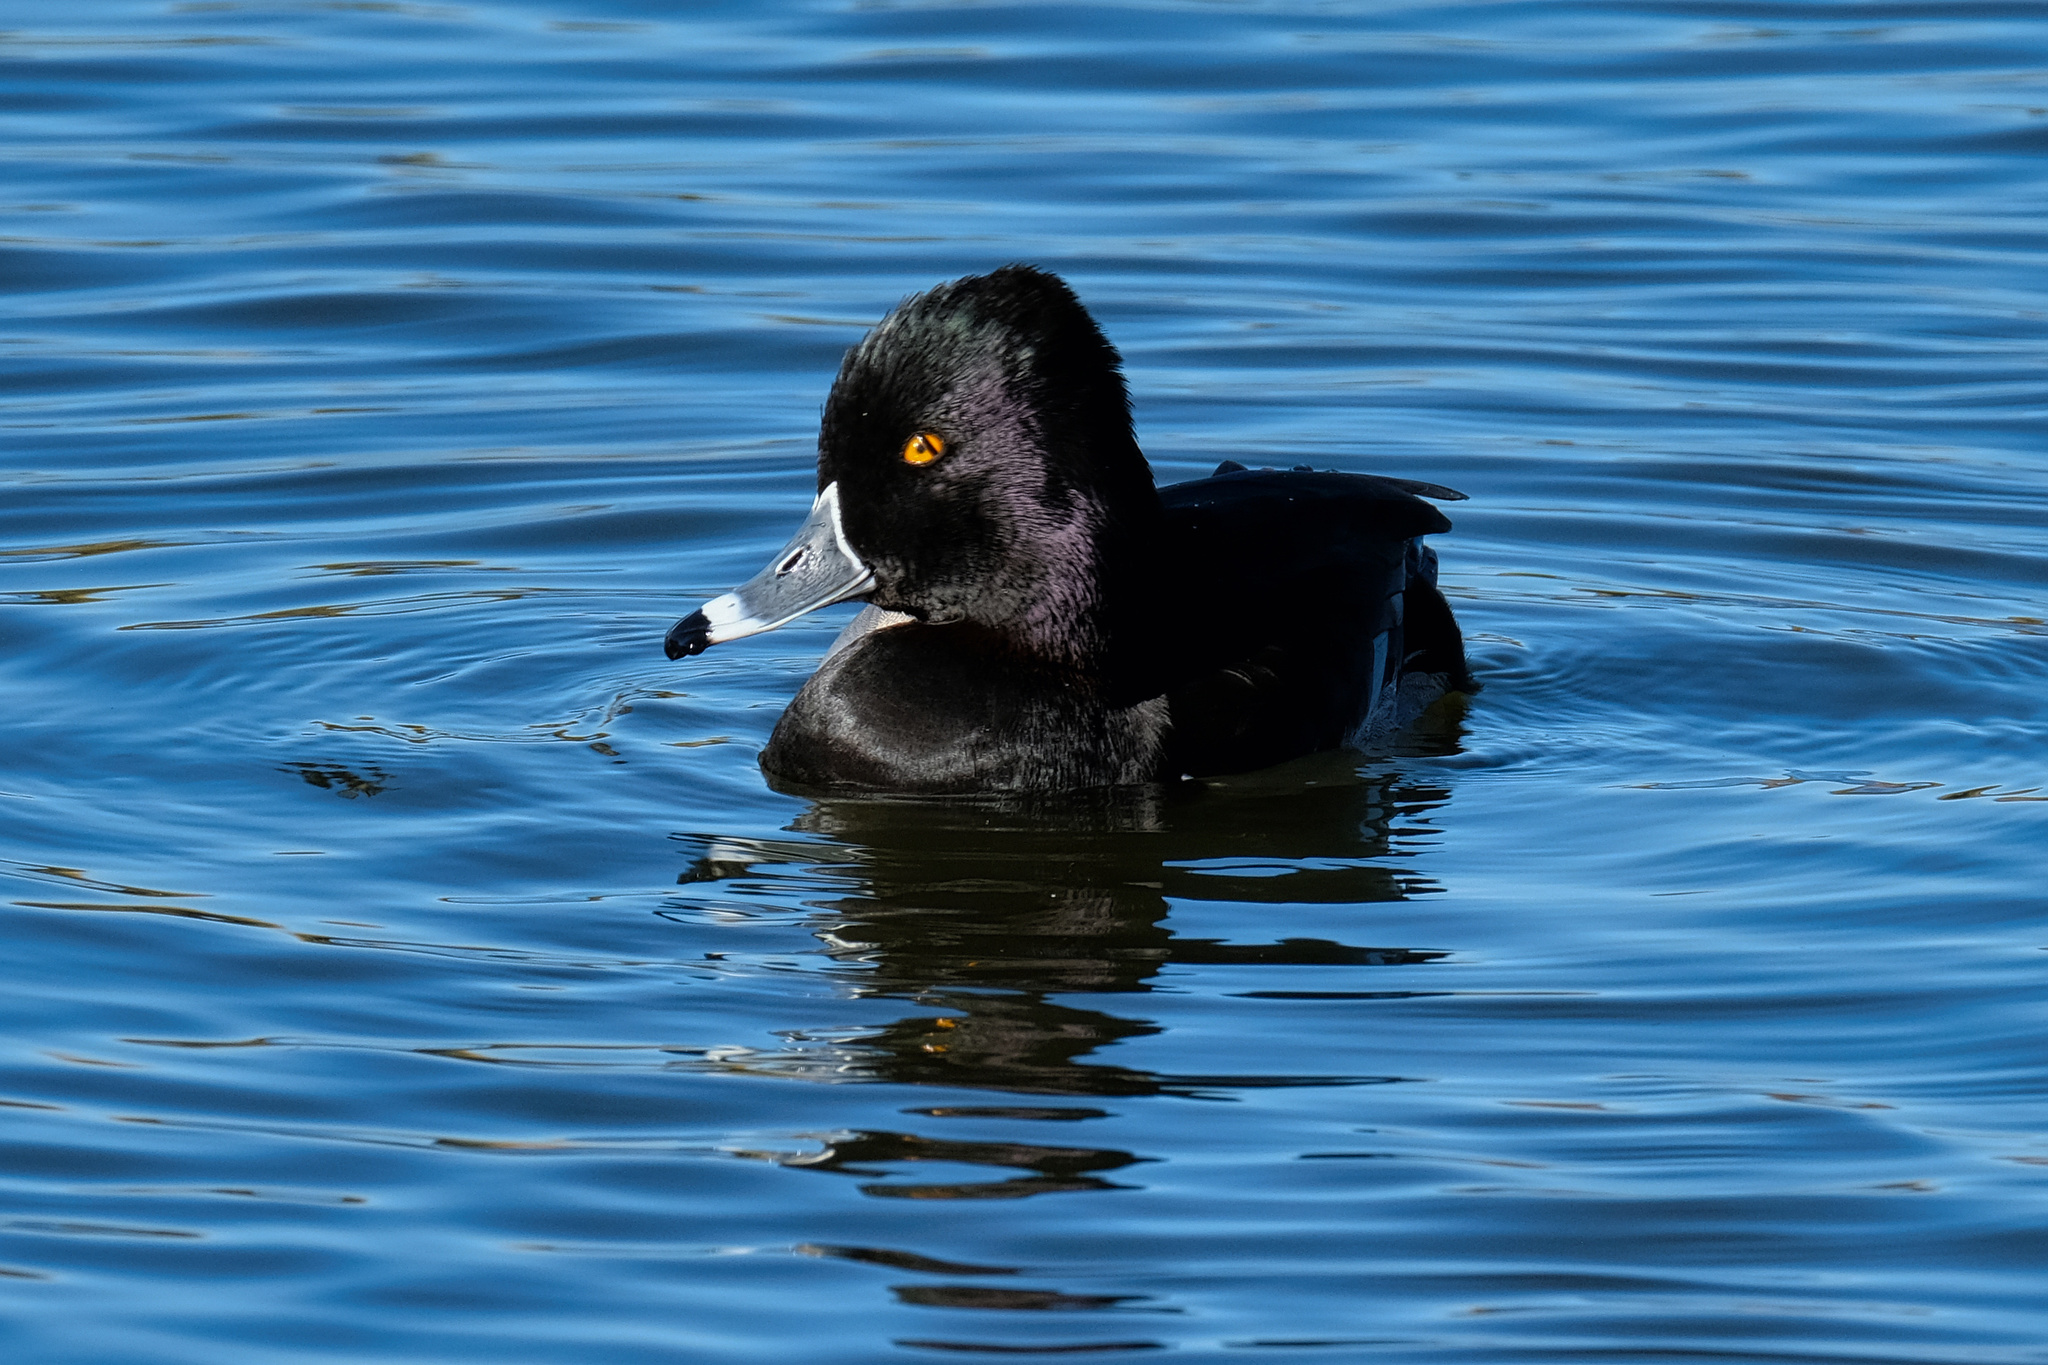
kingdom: Animalia
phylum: Chordata
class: Aves
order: Anseriformes
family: Anatidae
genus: Aythya
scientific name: Aythya collaris
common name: Ring-necked duck
